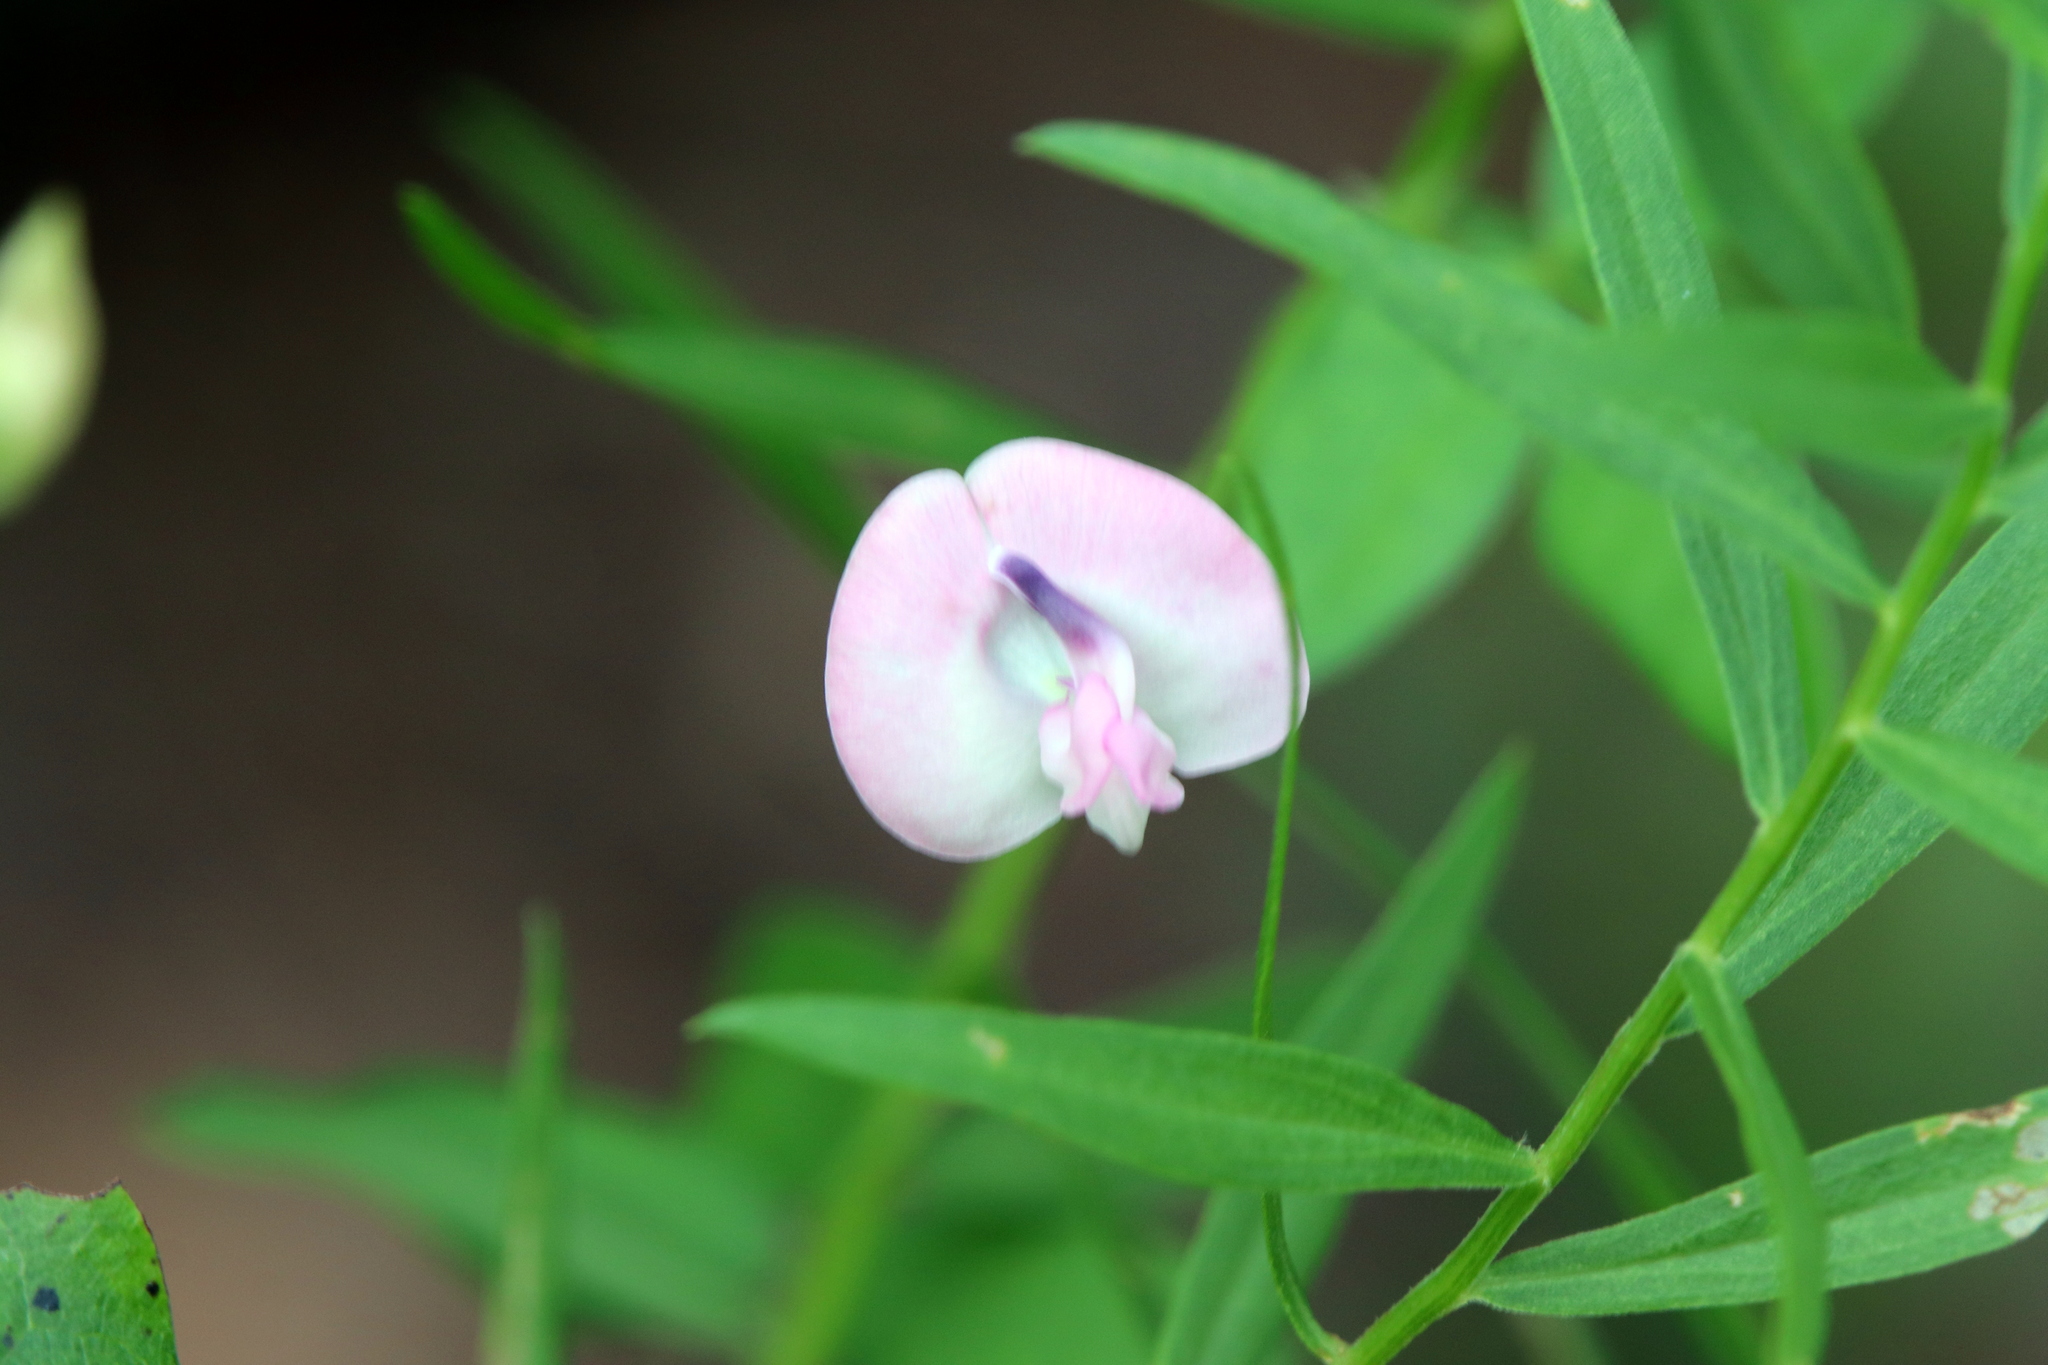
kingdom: Plantae
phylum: Tracheophyta
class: Magnoliopsida
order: Fabales
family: Fabaceae
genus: Strophostyles
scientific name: Strophostyles helvola
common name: Trailing wild bean
